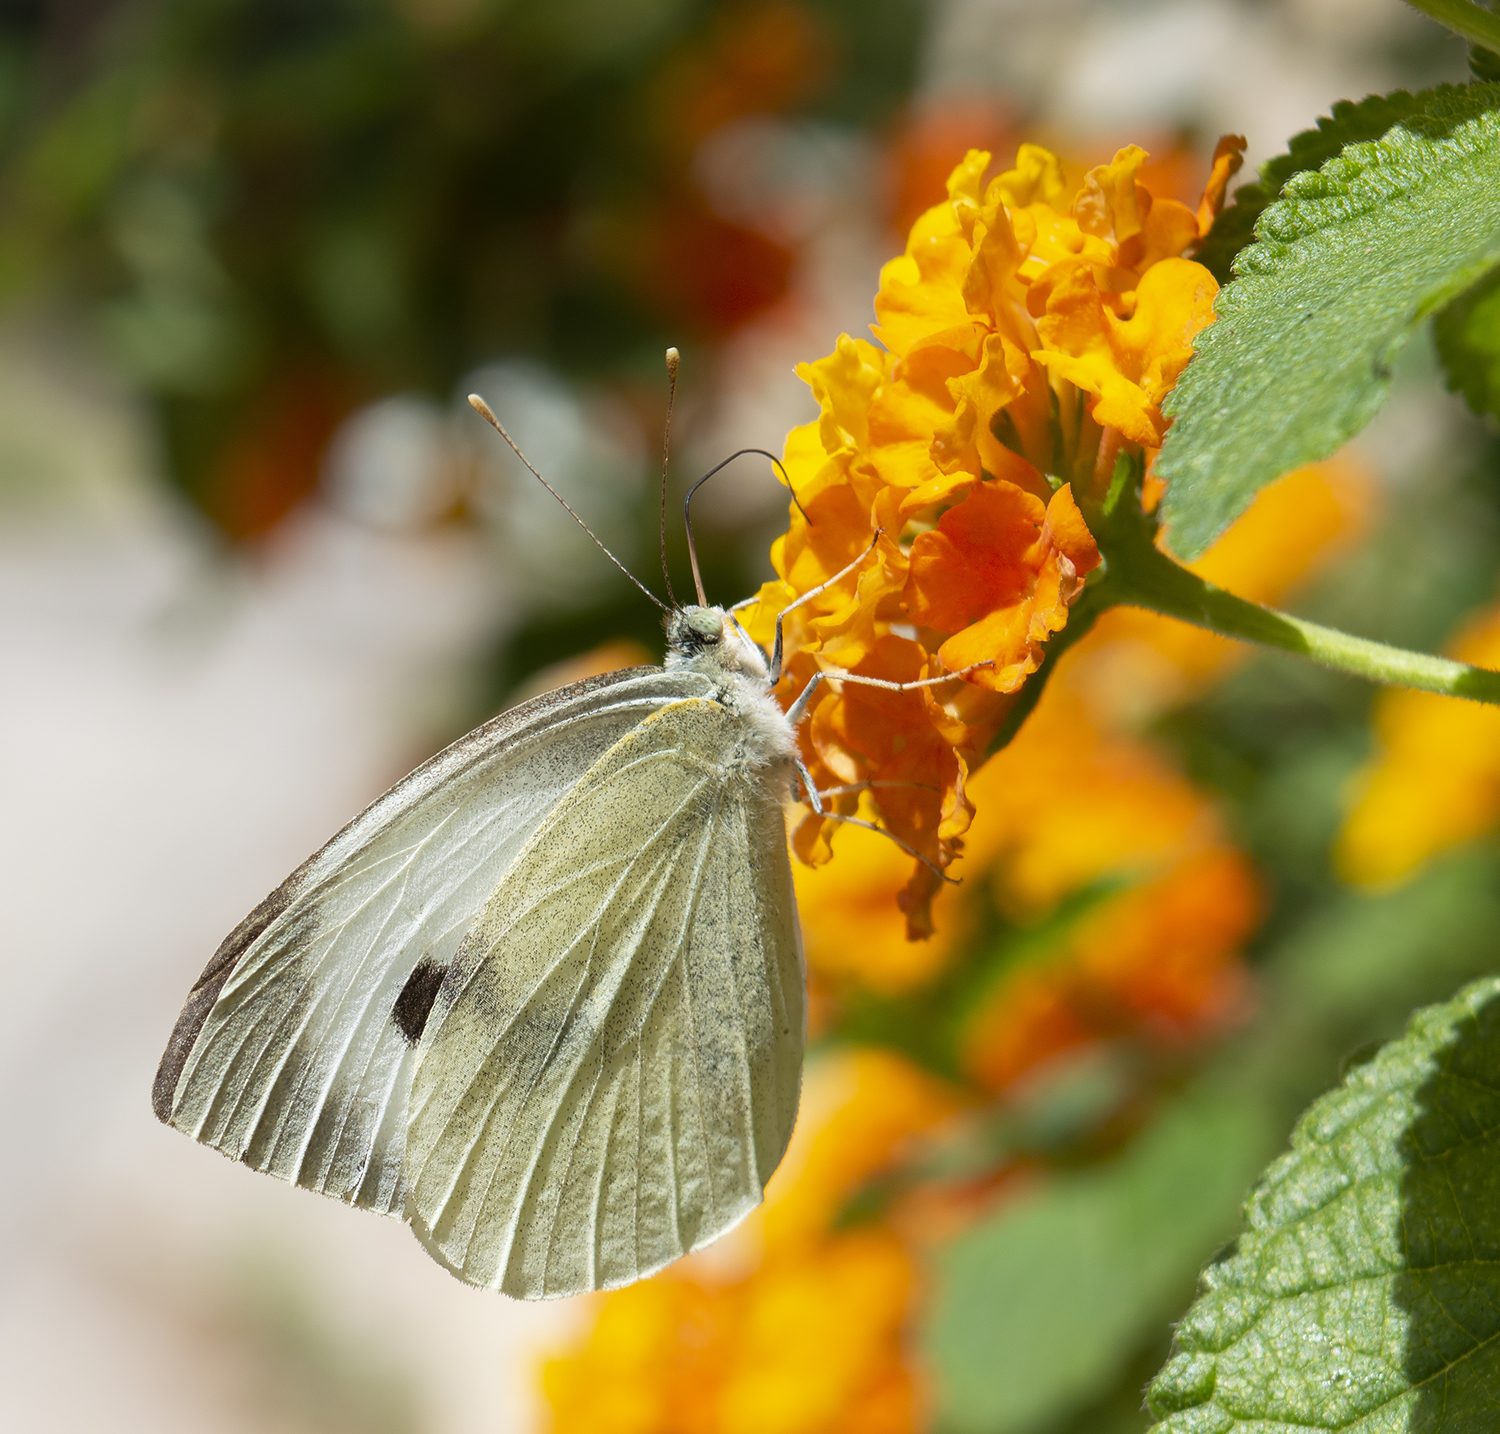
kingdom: Animalia
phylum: Arthropoda
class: Insecta
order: Lepidoptera
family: Pieridae
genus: Pieris
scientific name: Pieris brassicae
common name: Large white
